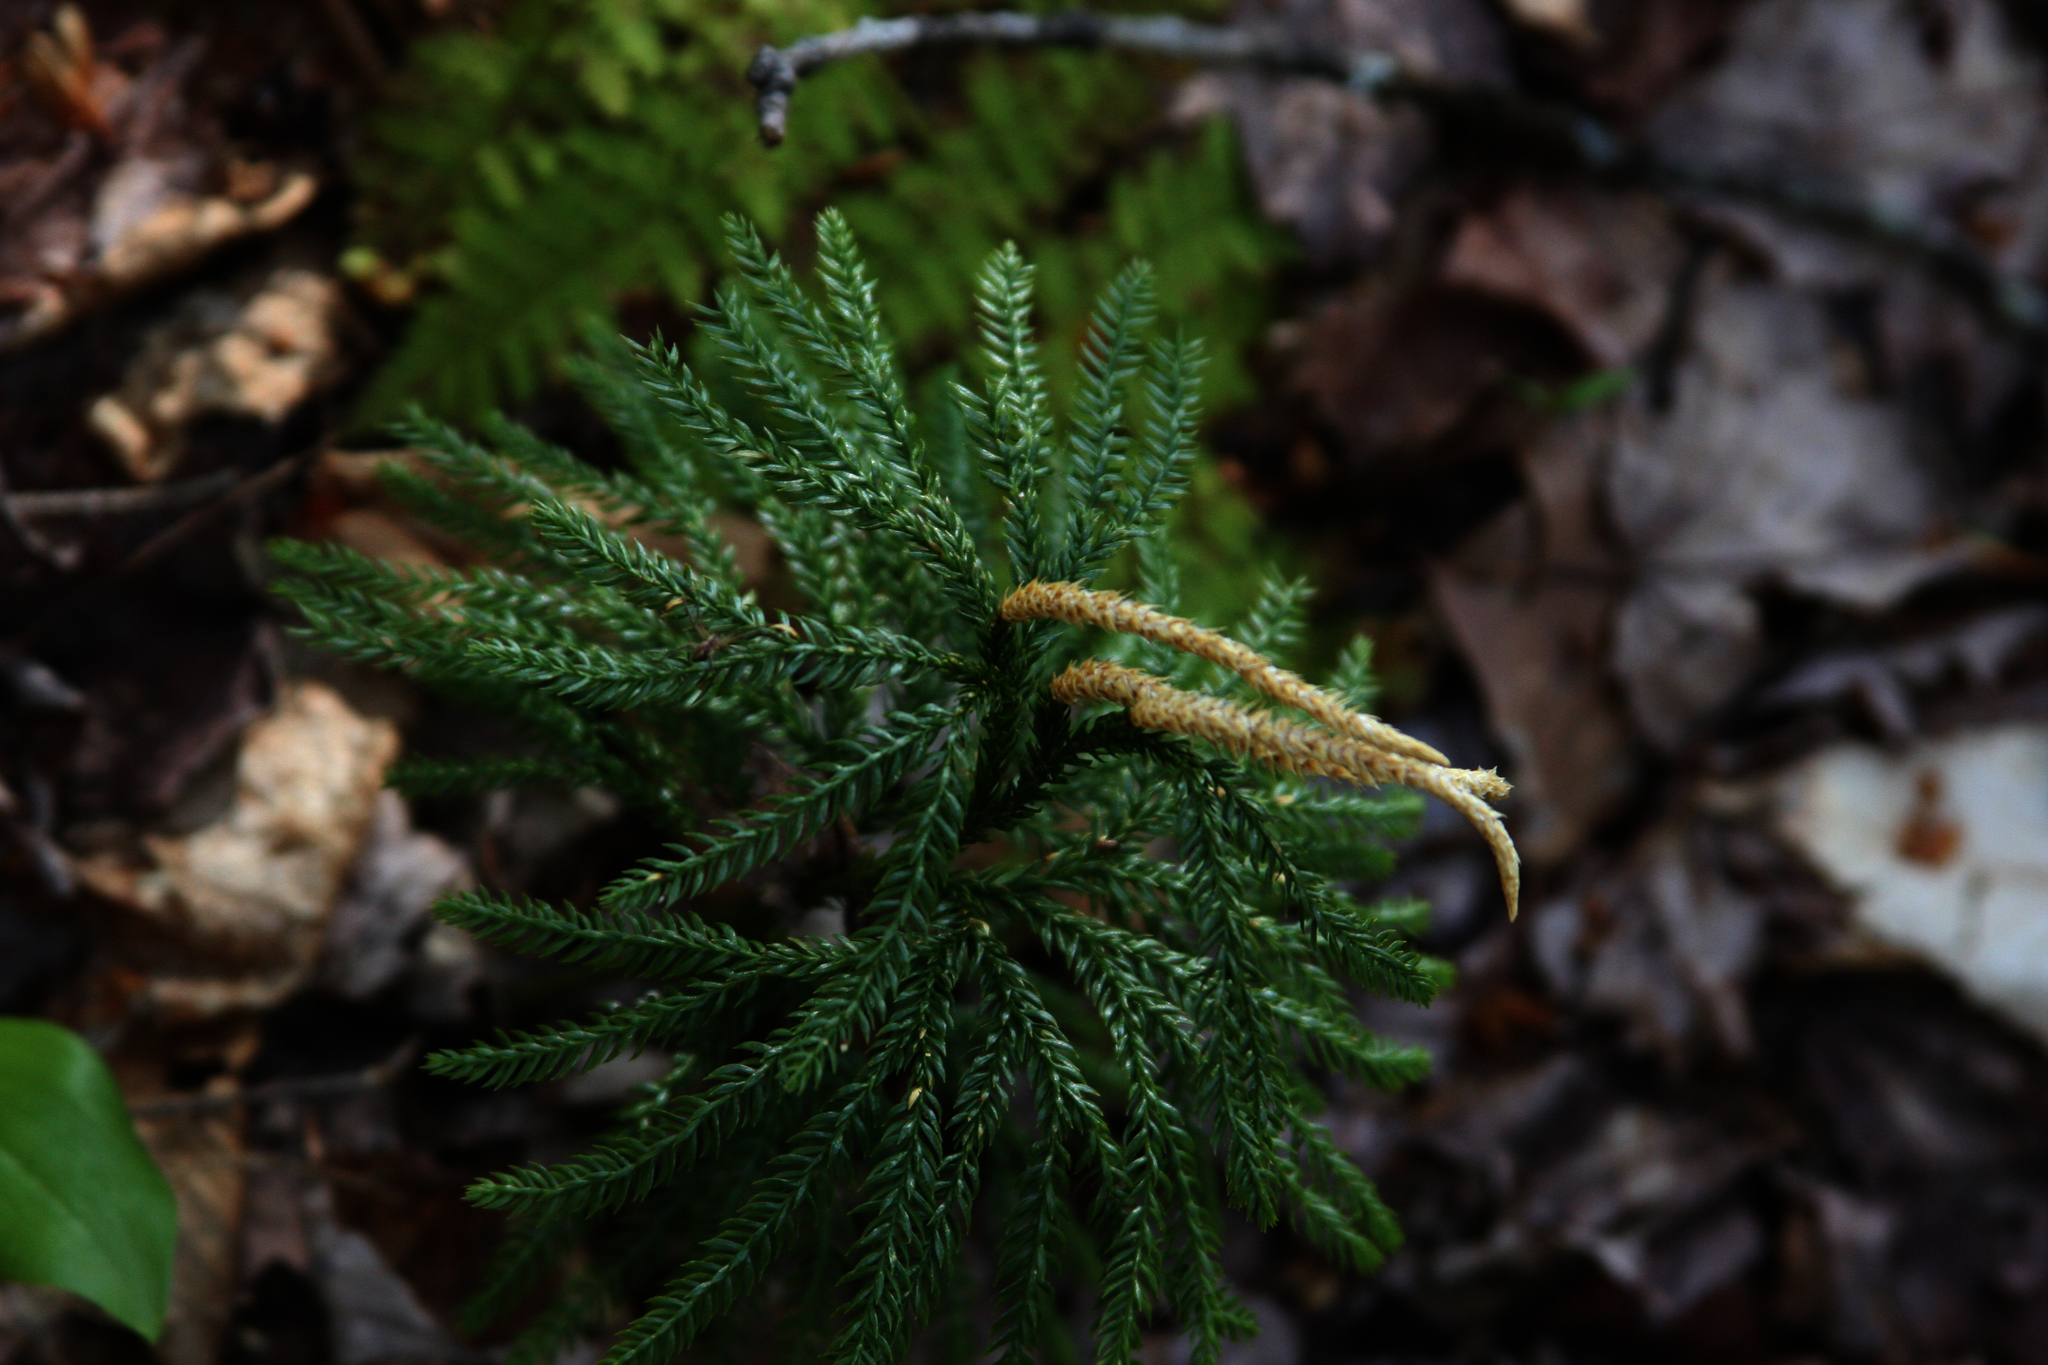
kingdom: Plantae
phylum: Tracheophyta
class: Lycopodiopsida
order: Lycopodiales
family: Lycopodiaceae
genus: Dendrolycopodium
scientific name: Dendrolycopodium obscurum
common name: Common ground-pine
